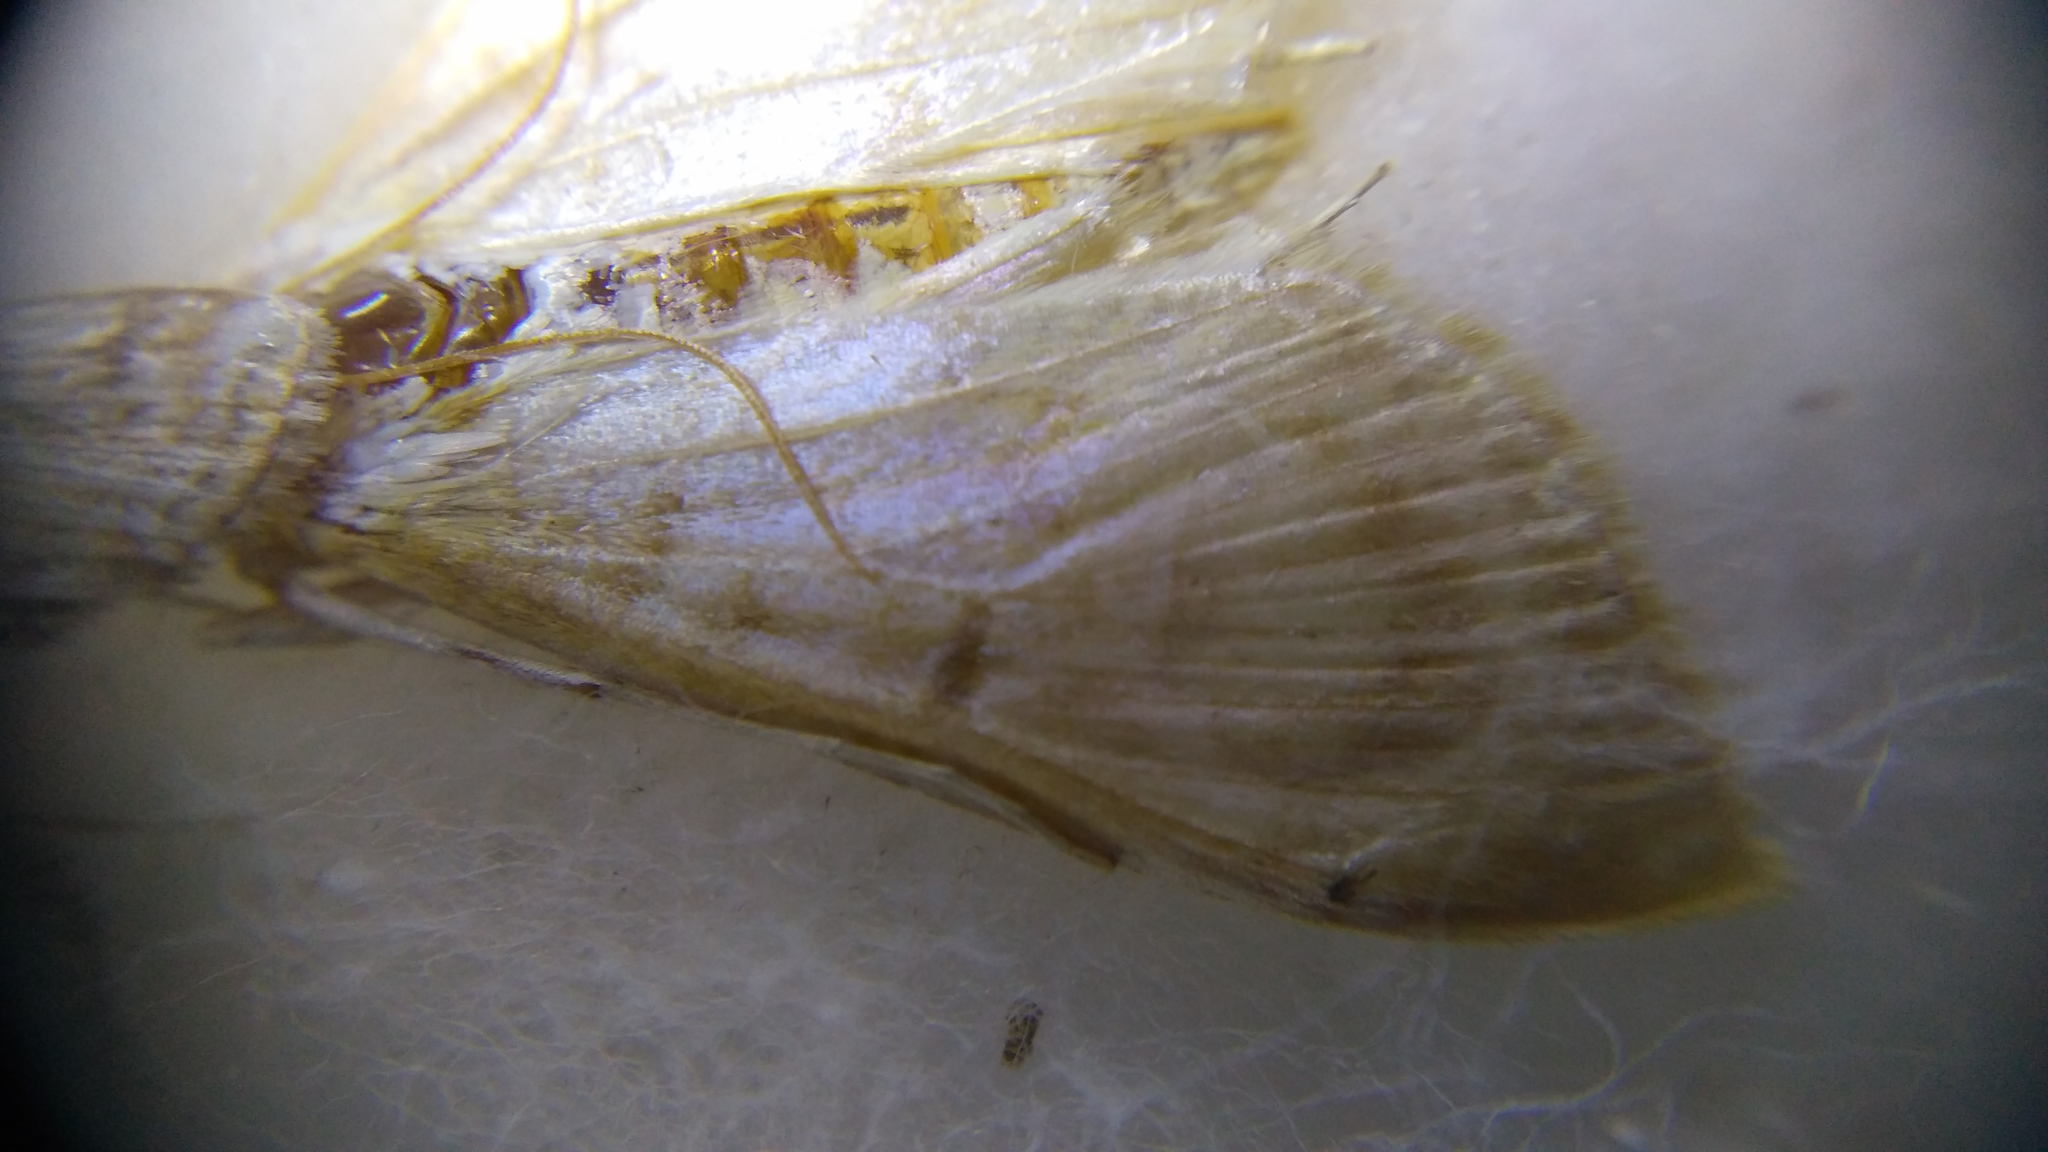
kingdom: Animalia
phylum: Arthropoda
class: Insecta
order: Lepidoptera
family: Crambidae
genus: Patania
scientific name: Patania ruralis
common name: Mother of pearl
